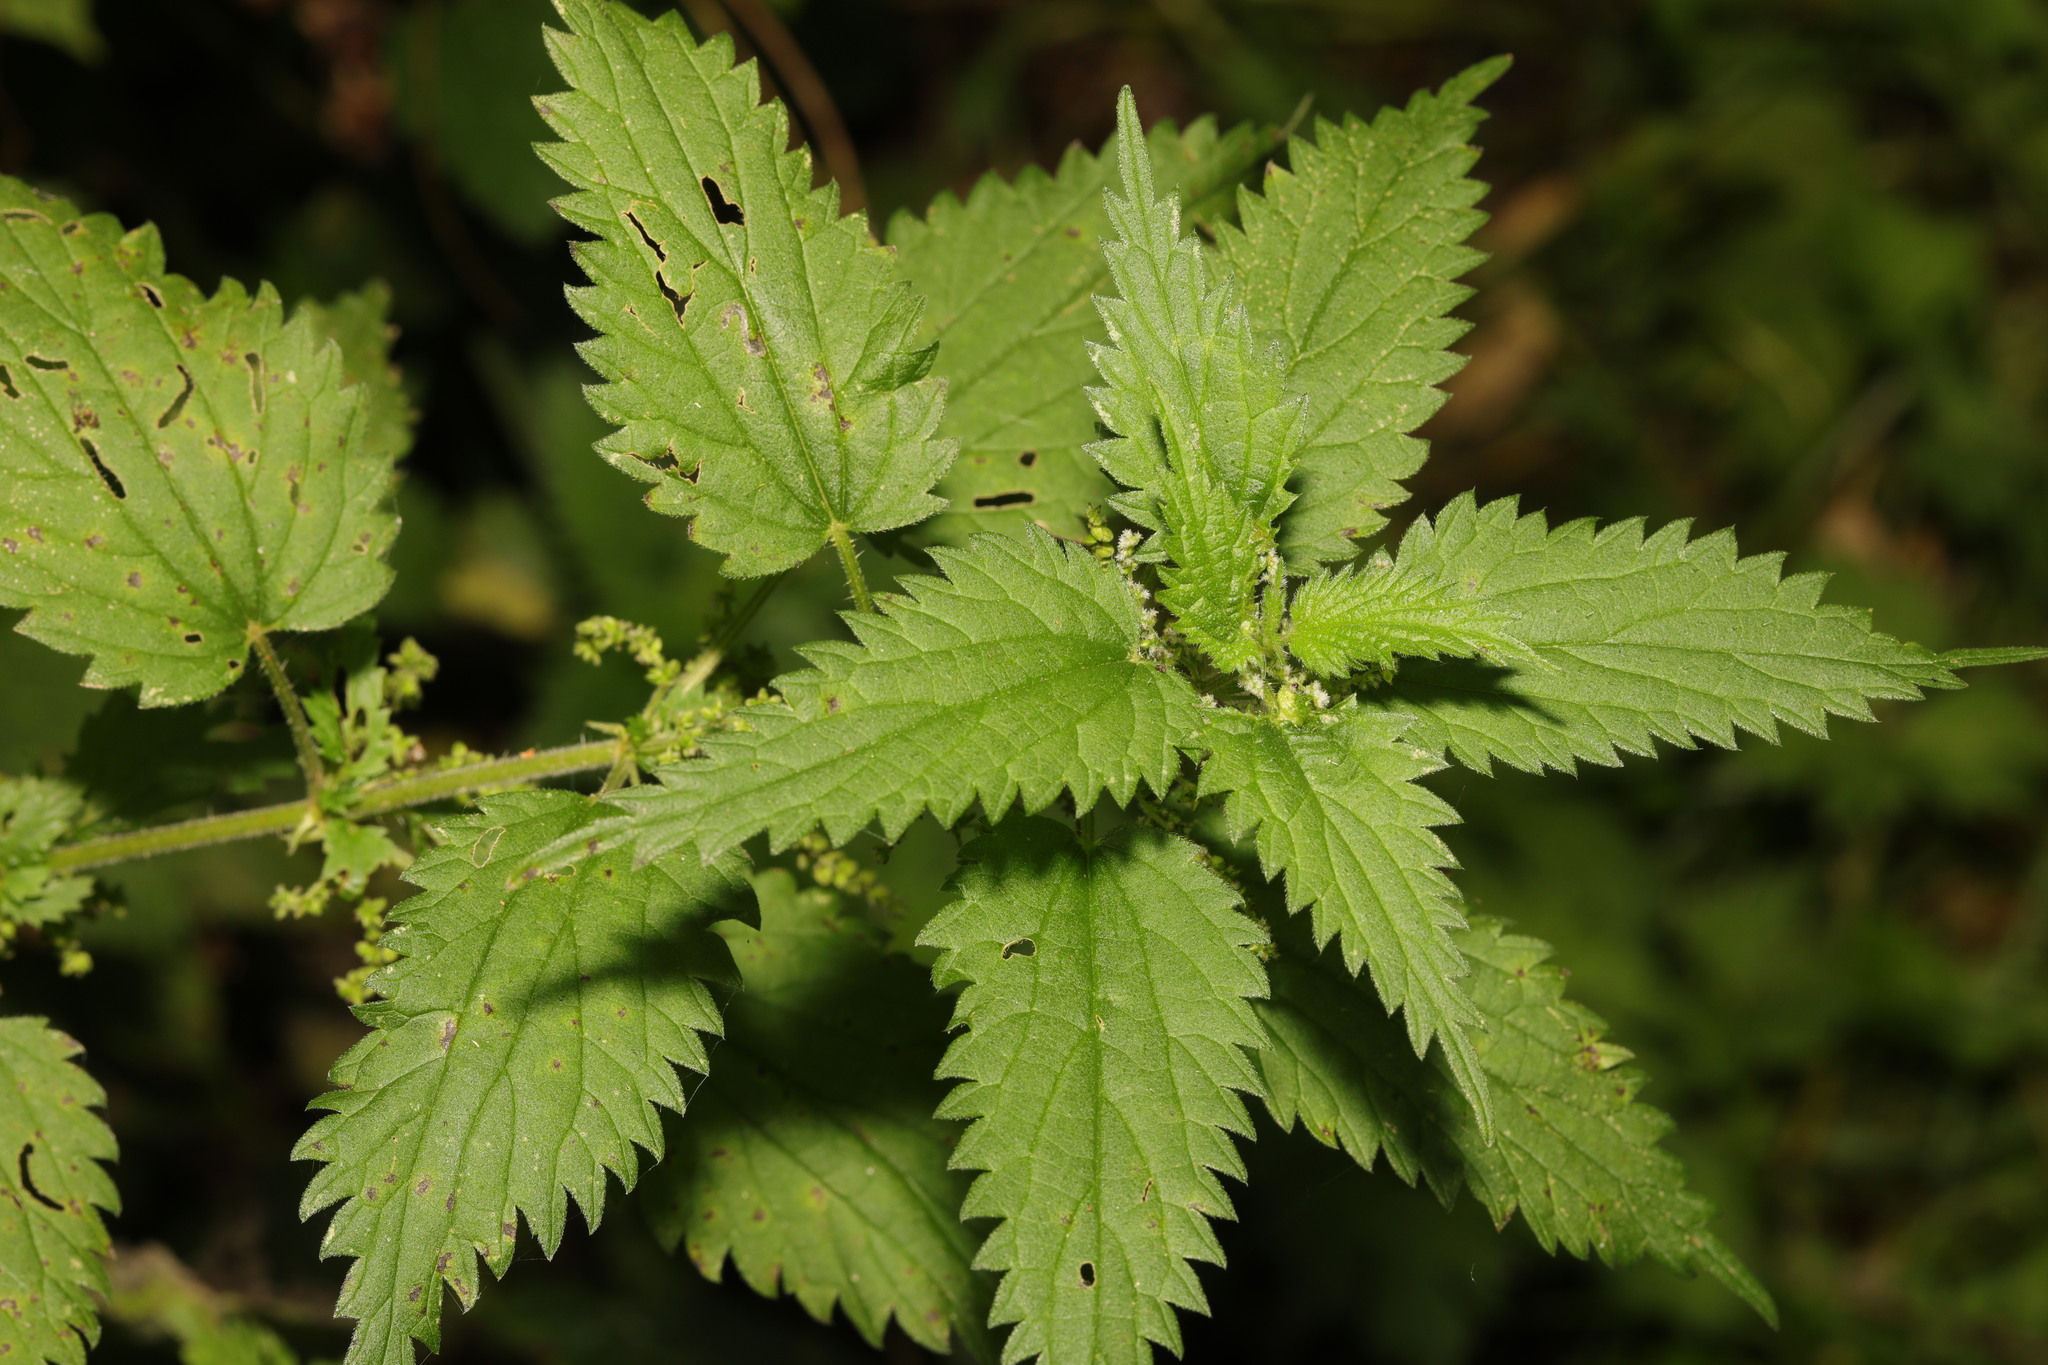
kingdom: Plantae
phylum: Tracheophyta
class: Magnoliopsida
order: Rosales
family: Urticaceae
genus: Urtica
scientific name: Urtica dioica
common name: Common nettle
